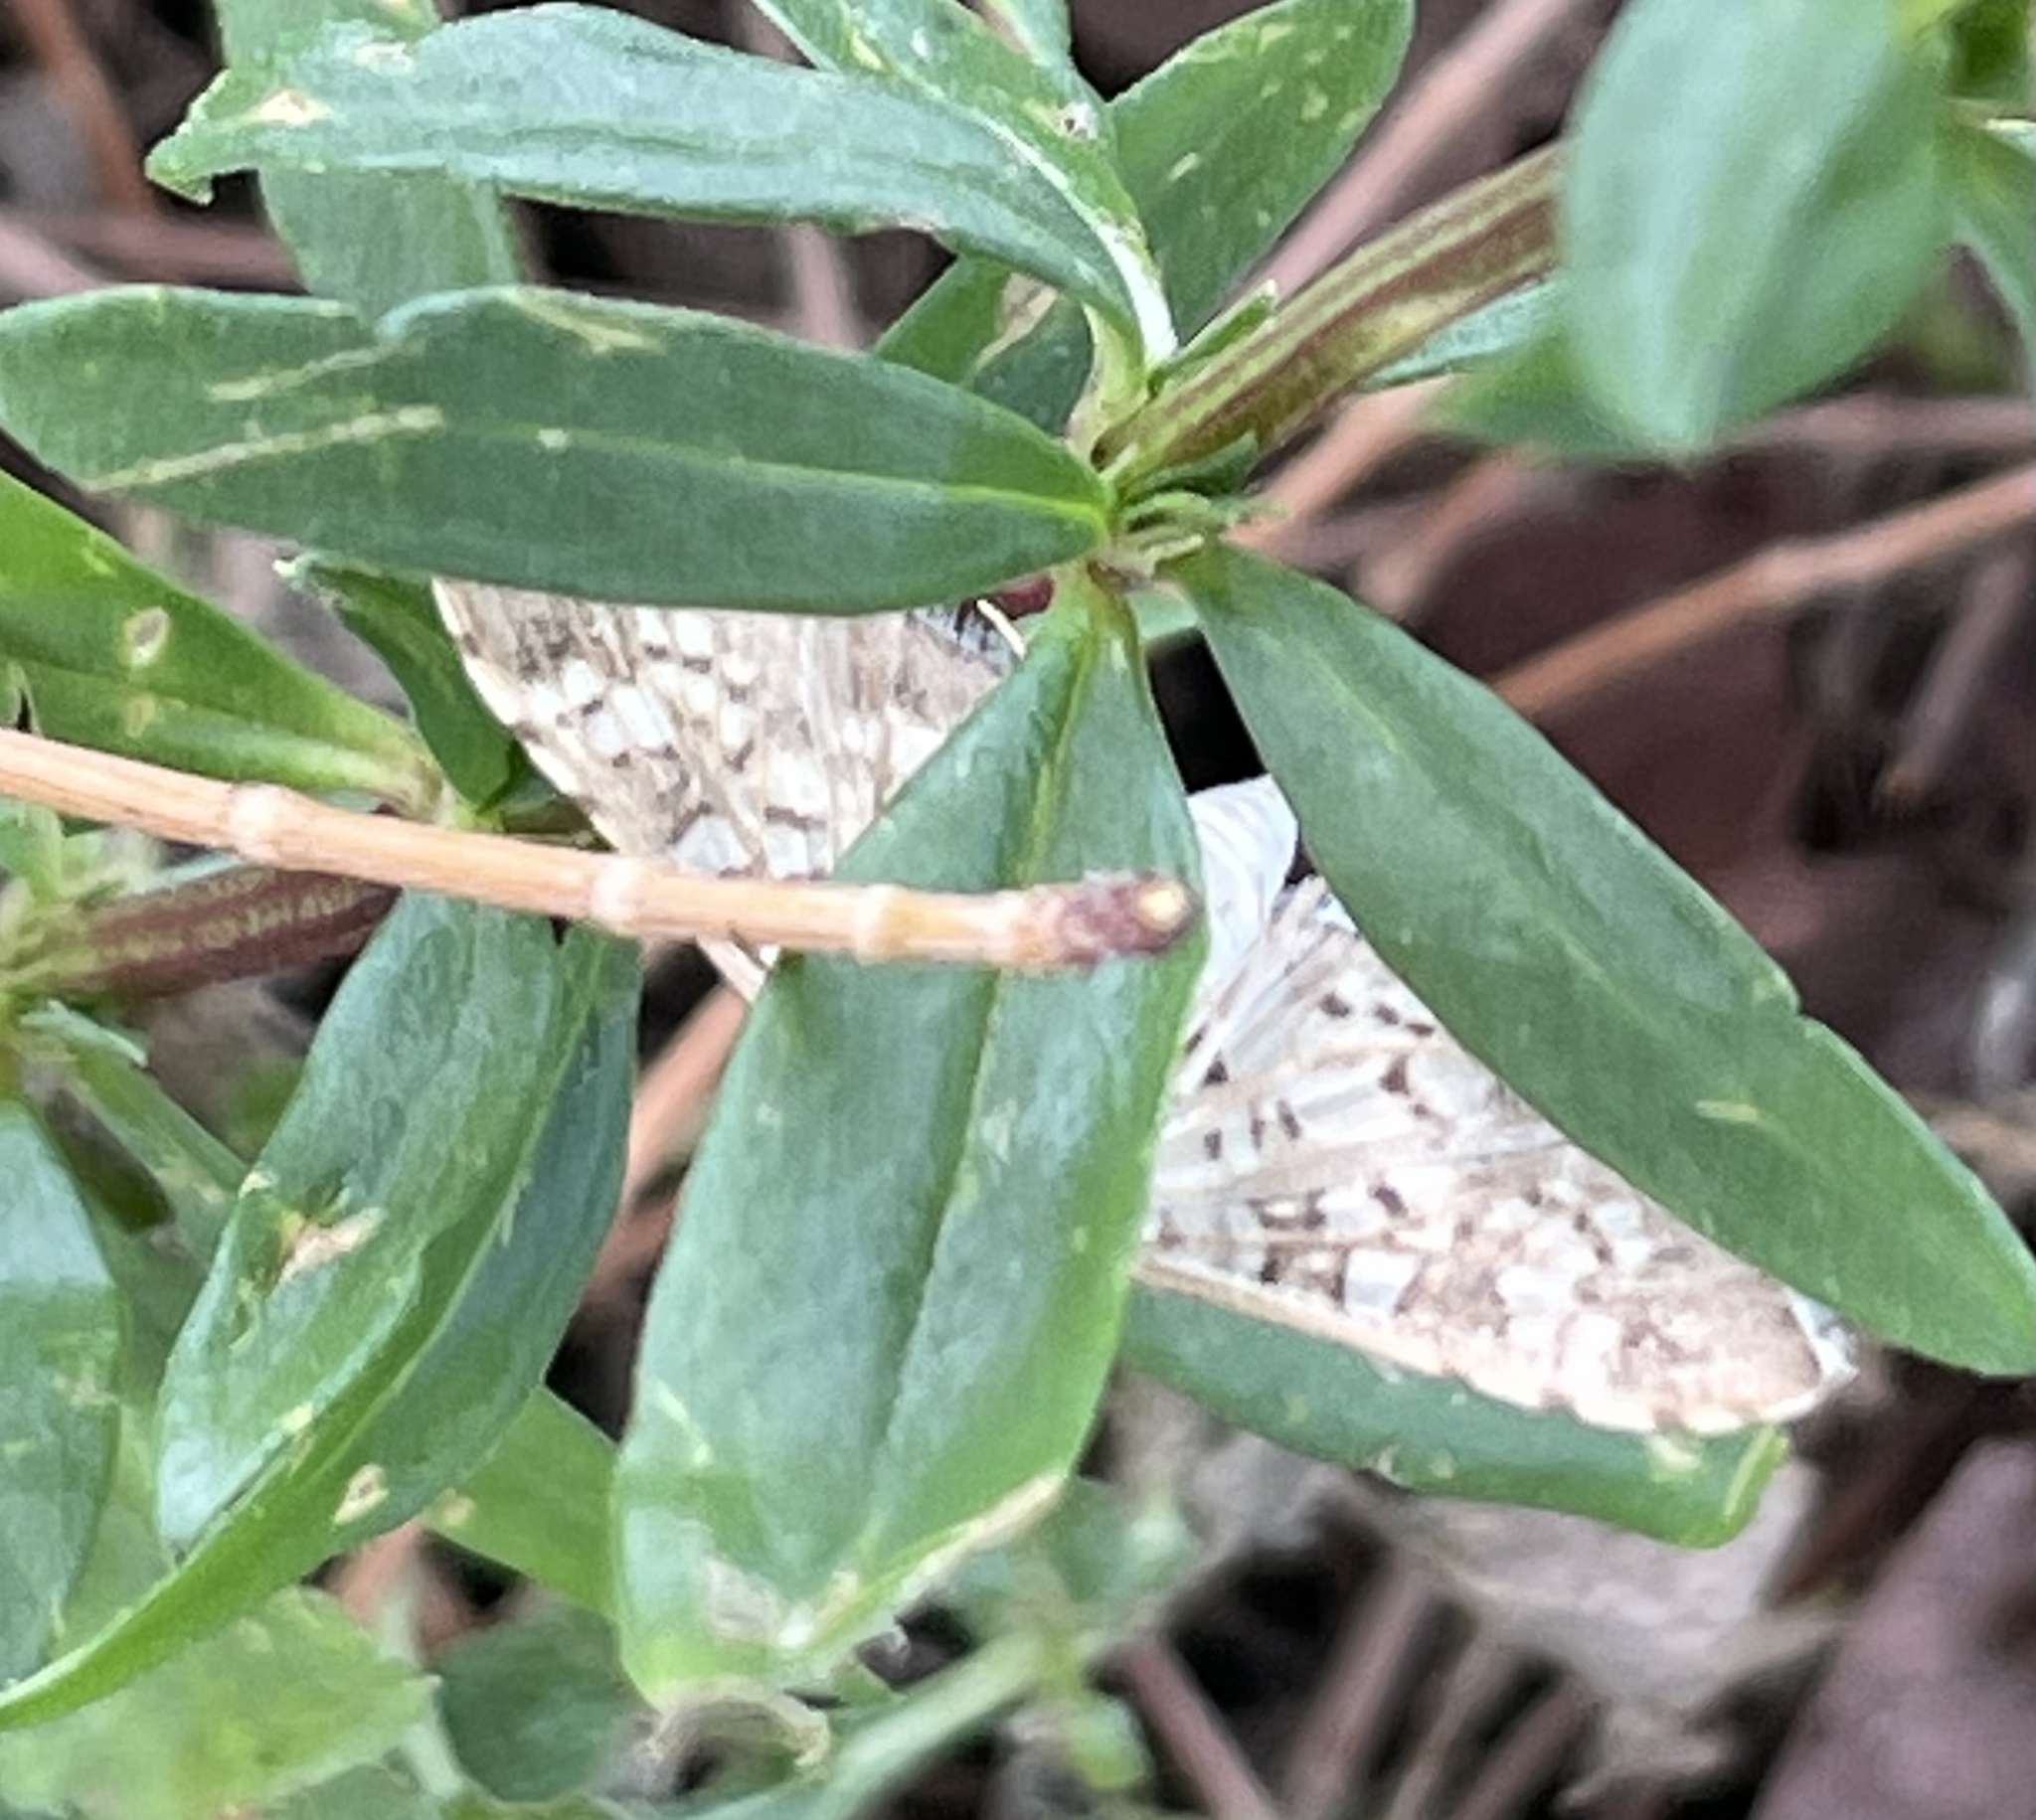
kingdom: Animalia
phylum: Arthropoda
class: Insecta
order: Lepidoptera
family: Crambidae
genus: Samea
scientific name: Samea ecclesialis
